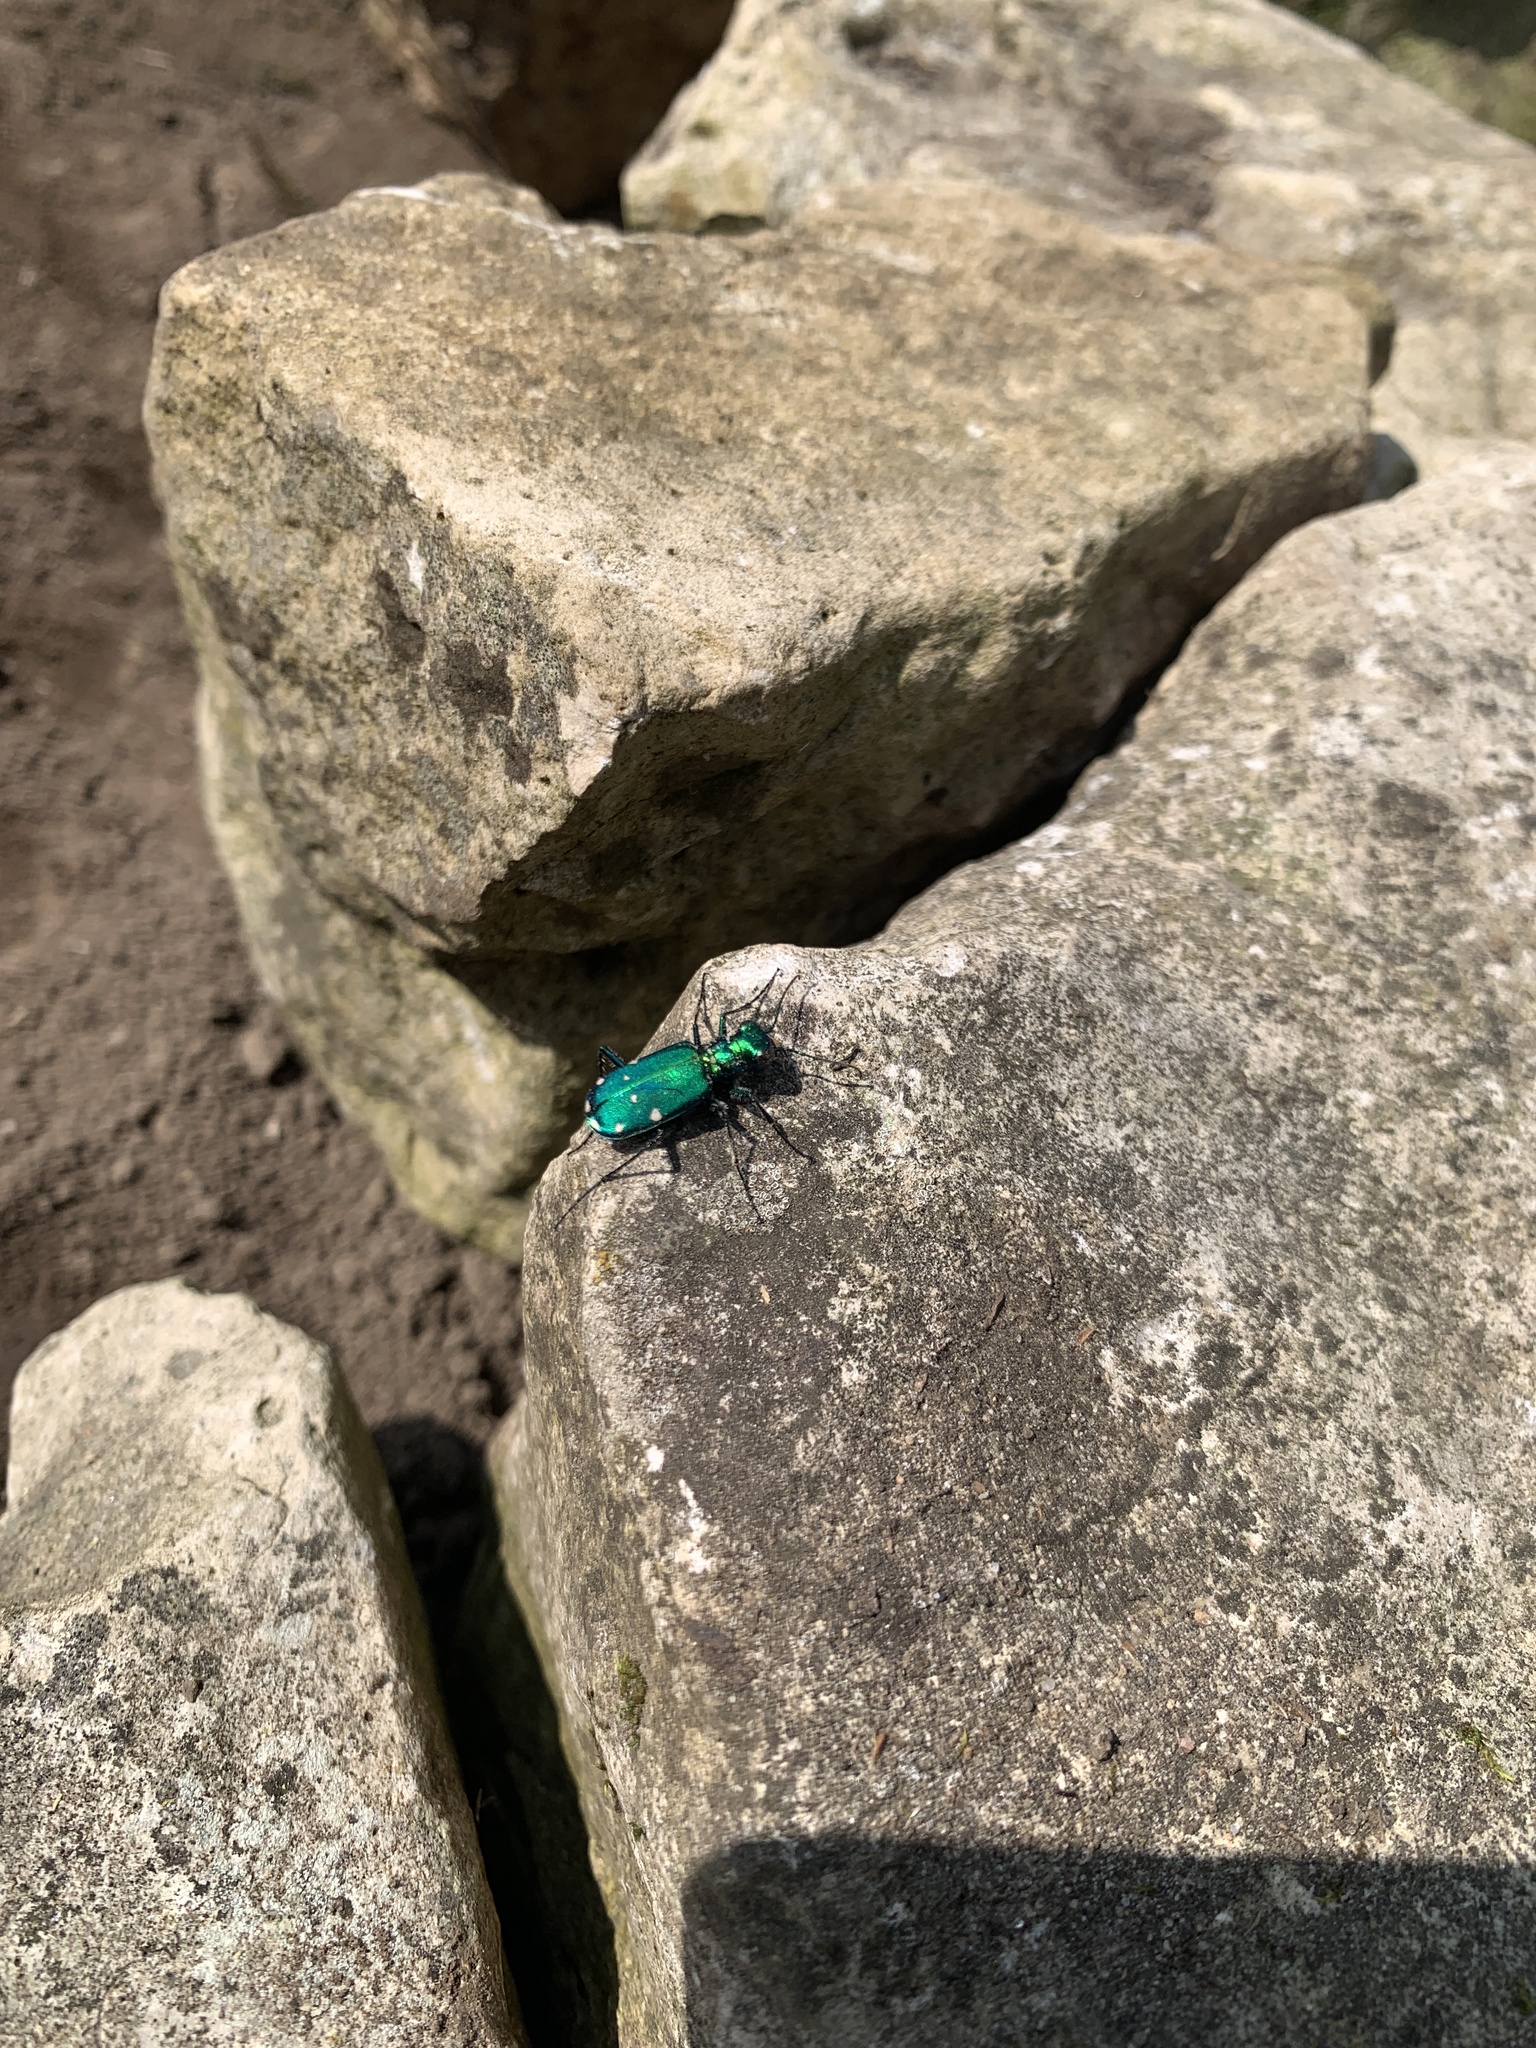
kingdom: Animalia
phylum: Arthropoda
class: Insecta
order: Coleoptera
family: Carabidae
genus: Cicindela
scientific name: Cicindela sexguttata
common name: Six-spotted tiger beetle
